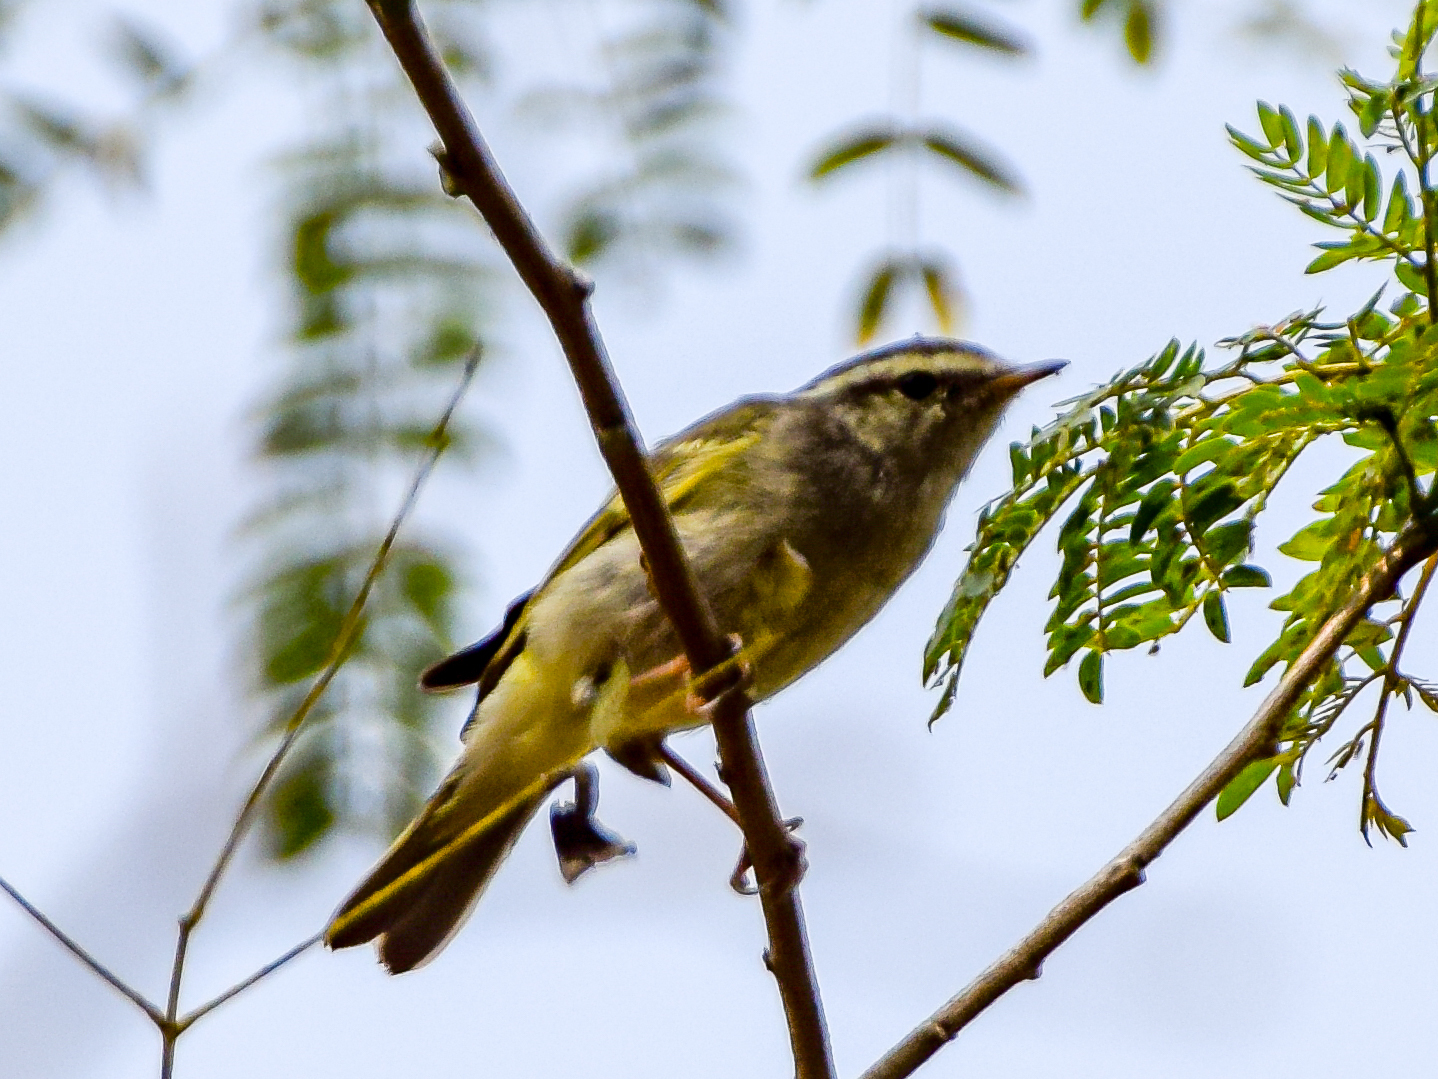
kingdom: Animalia
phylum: Chordata
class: Aves
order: Passeriformes
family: Phylloscopidae
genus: Phylloscopus
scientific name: Phylloscopus maculipennis
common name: Ashy-throated warbler
